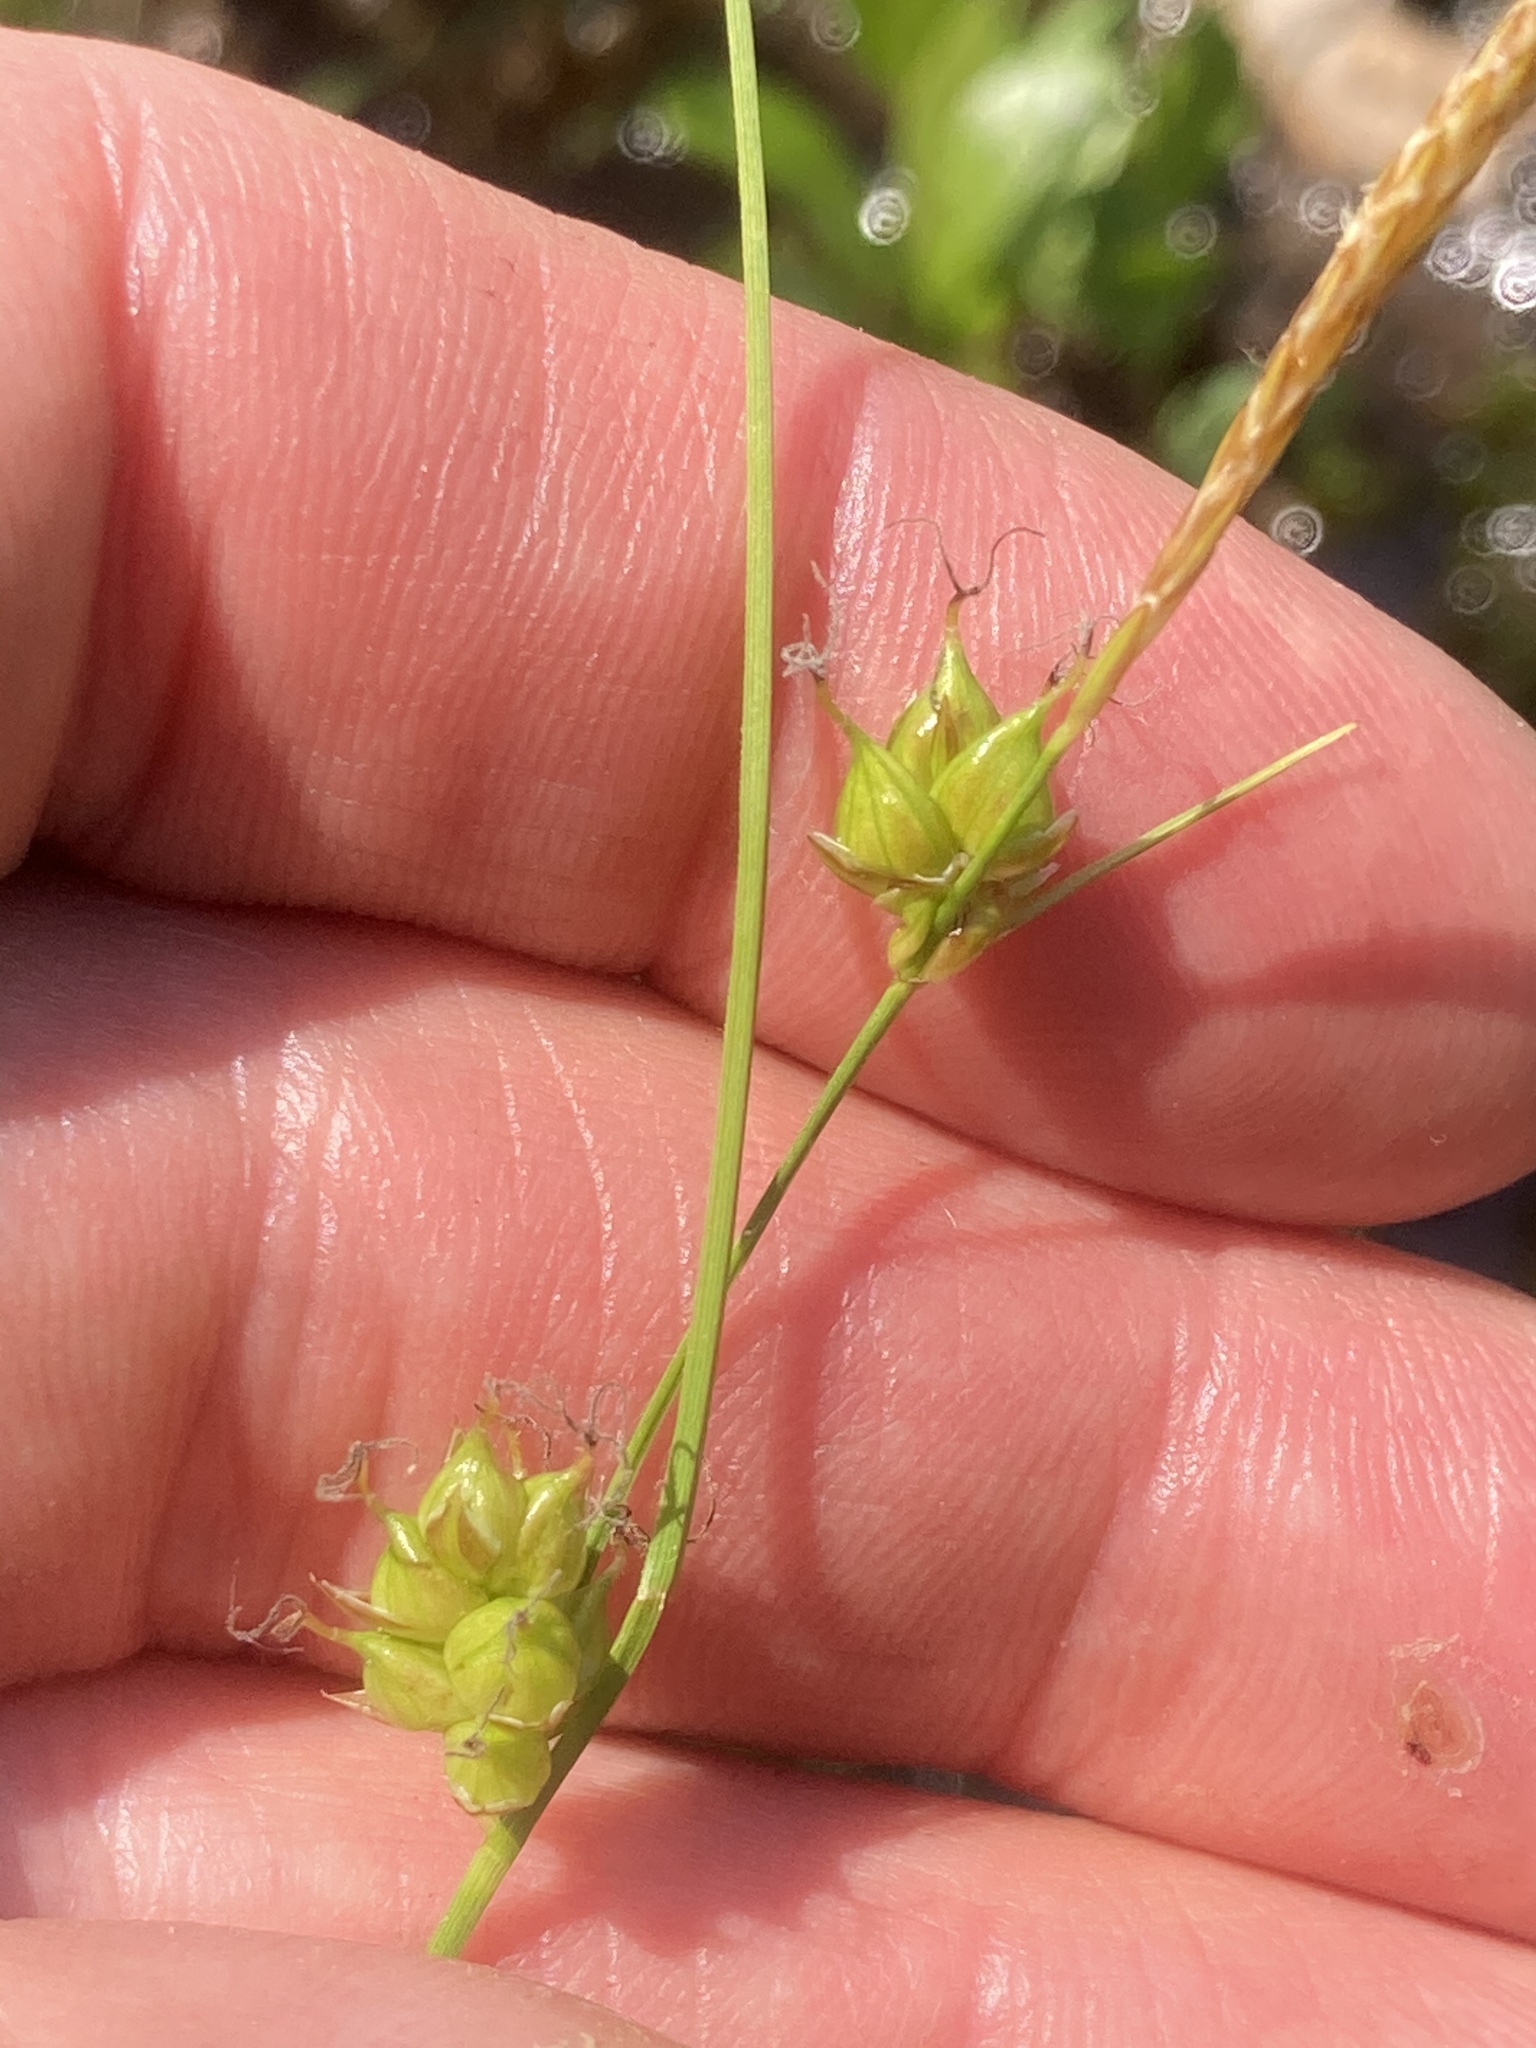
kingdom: Plantae
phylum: Tracheophyta
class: Liliopsida
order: Poales
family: Cyperaceae
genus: Carex
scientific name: Carex oligosperma
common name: Few-seed sedge
